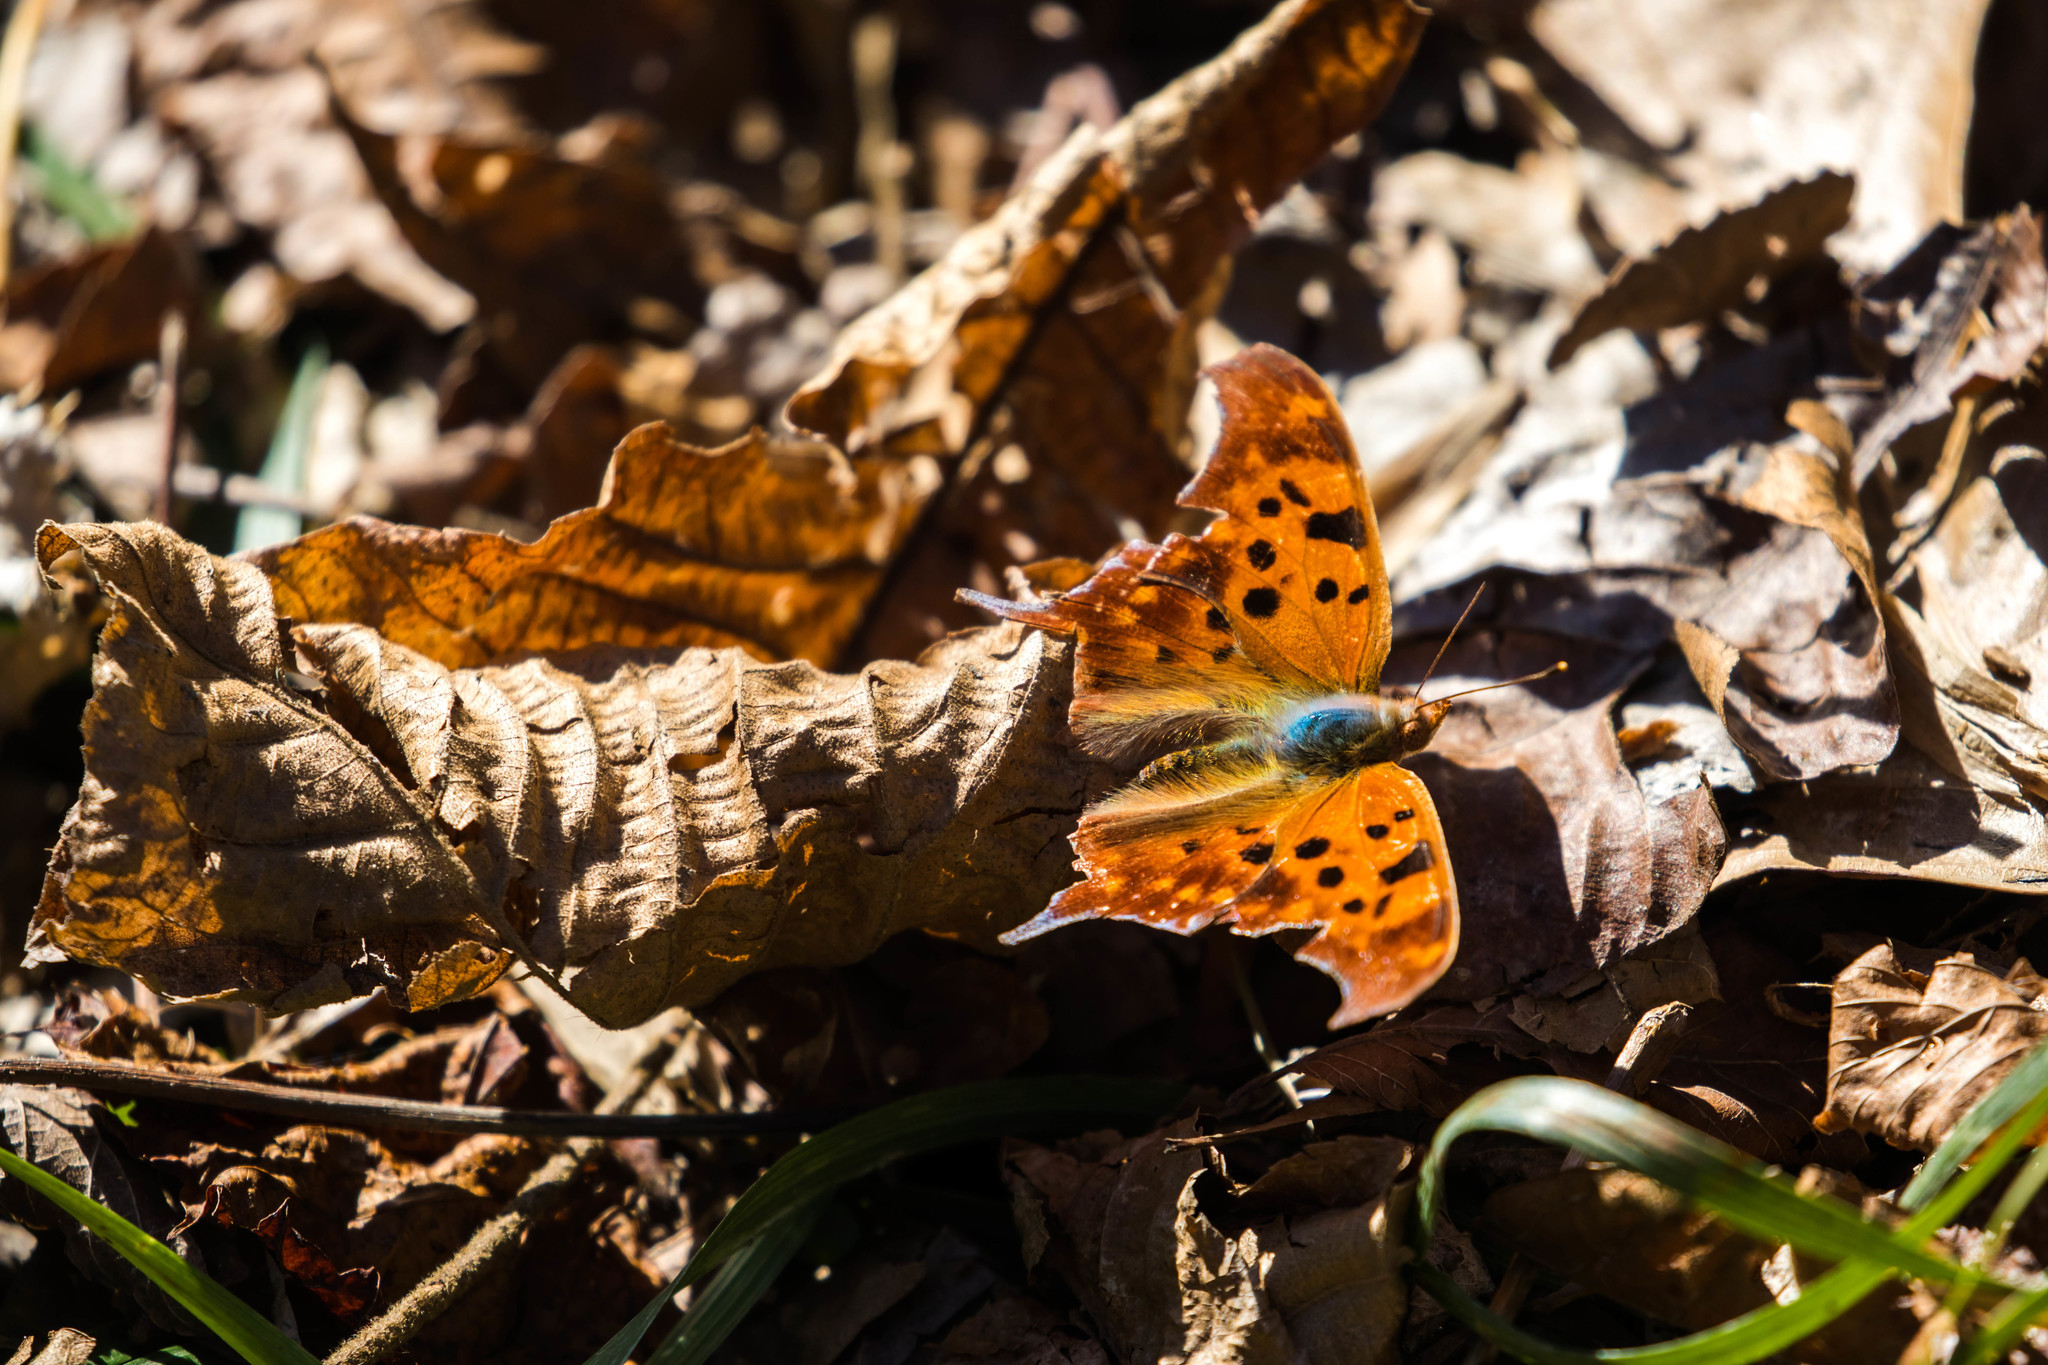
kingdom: Animalia
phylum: Arthropoda
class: Insecta
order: Lepidoptera
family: Nymphalidae
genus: Polygonia
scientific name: Polygonia interrogationis
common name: Question mark
